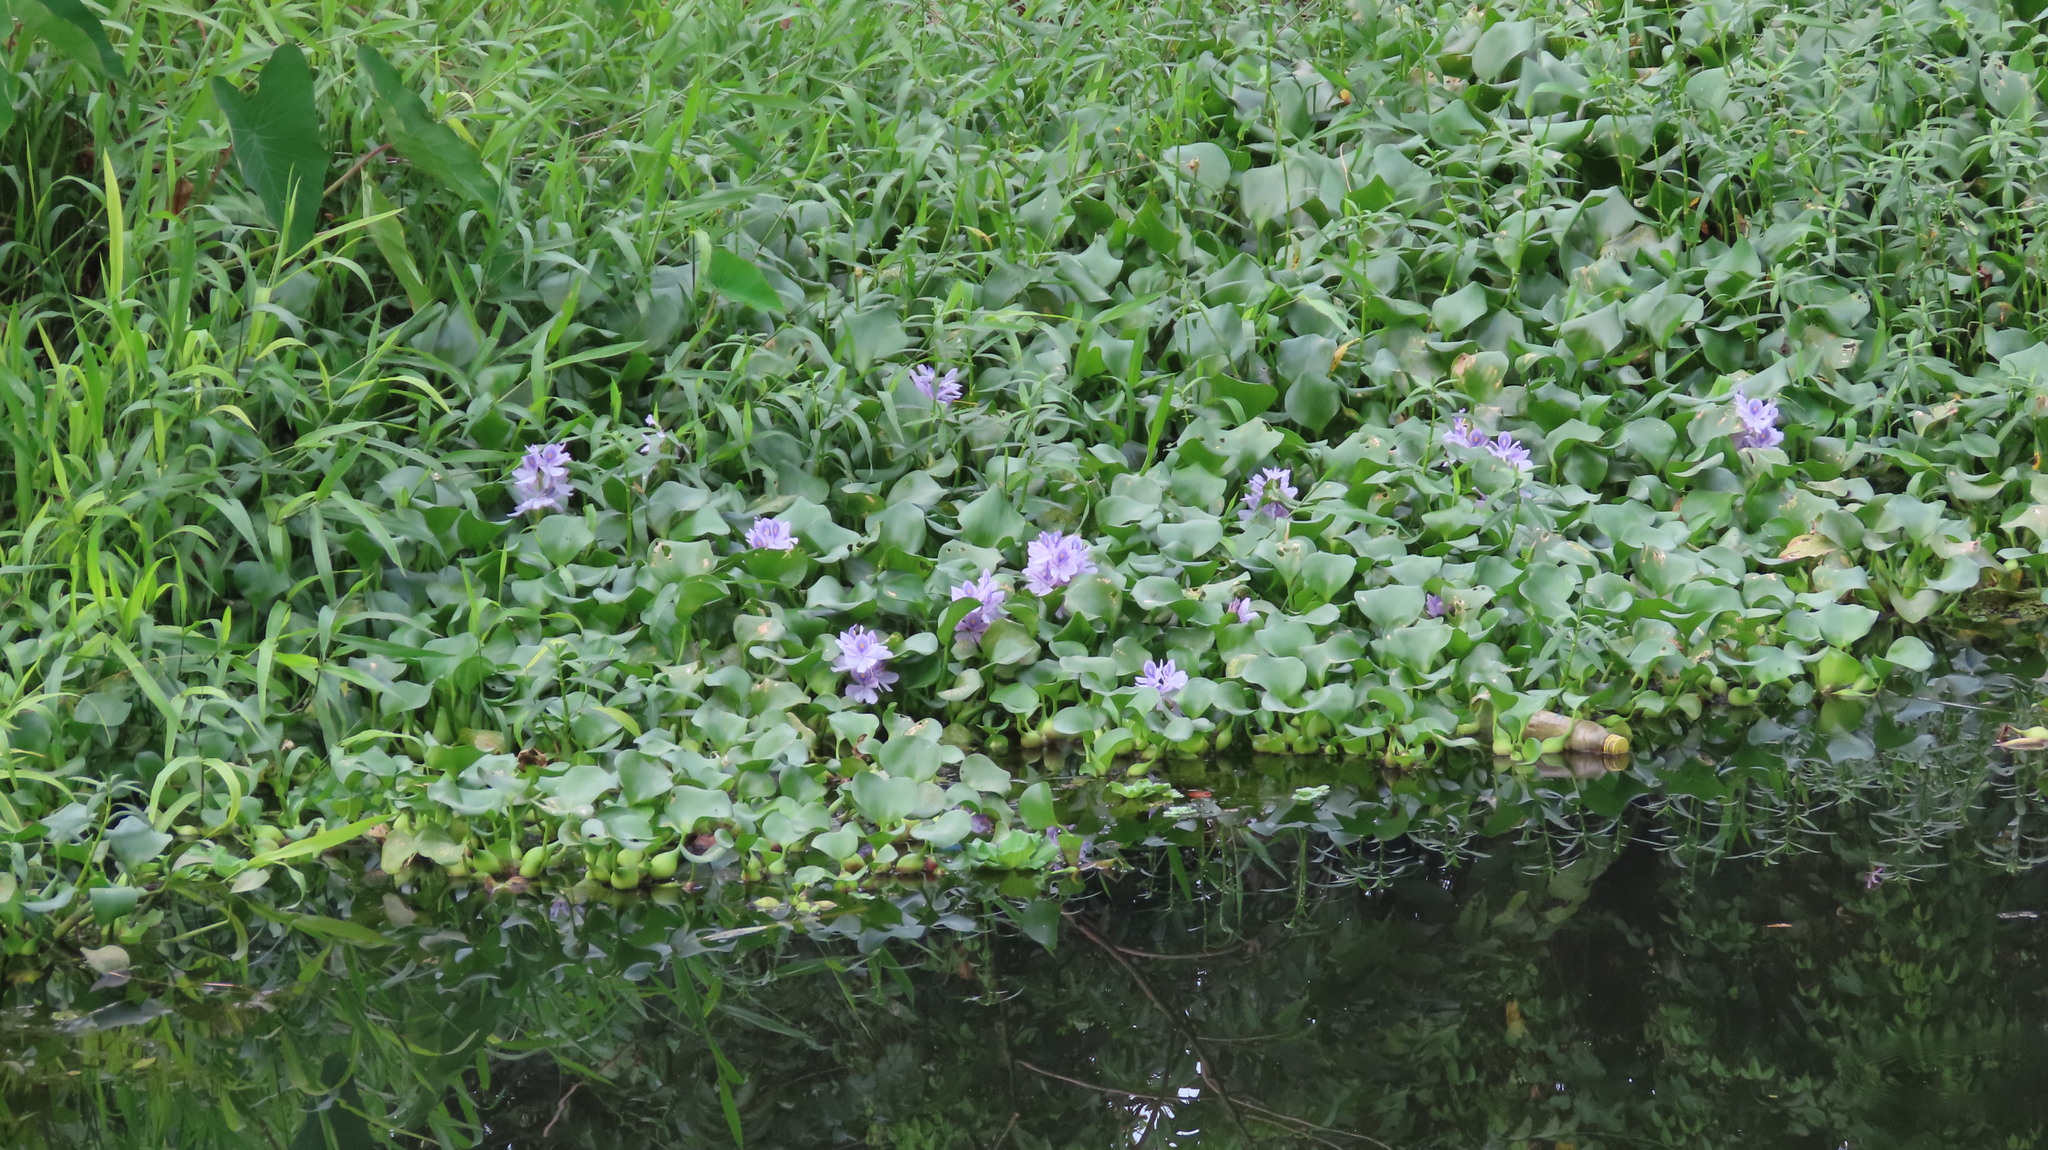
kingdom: Plantae
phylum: Tracheophyta
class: Liliopsida
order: Commelinales
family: Pontederiaceae
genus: Pontederia
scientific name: Pontederia crassipes
